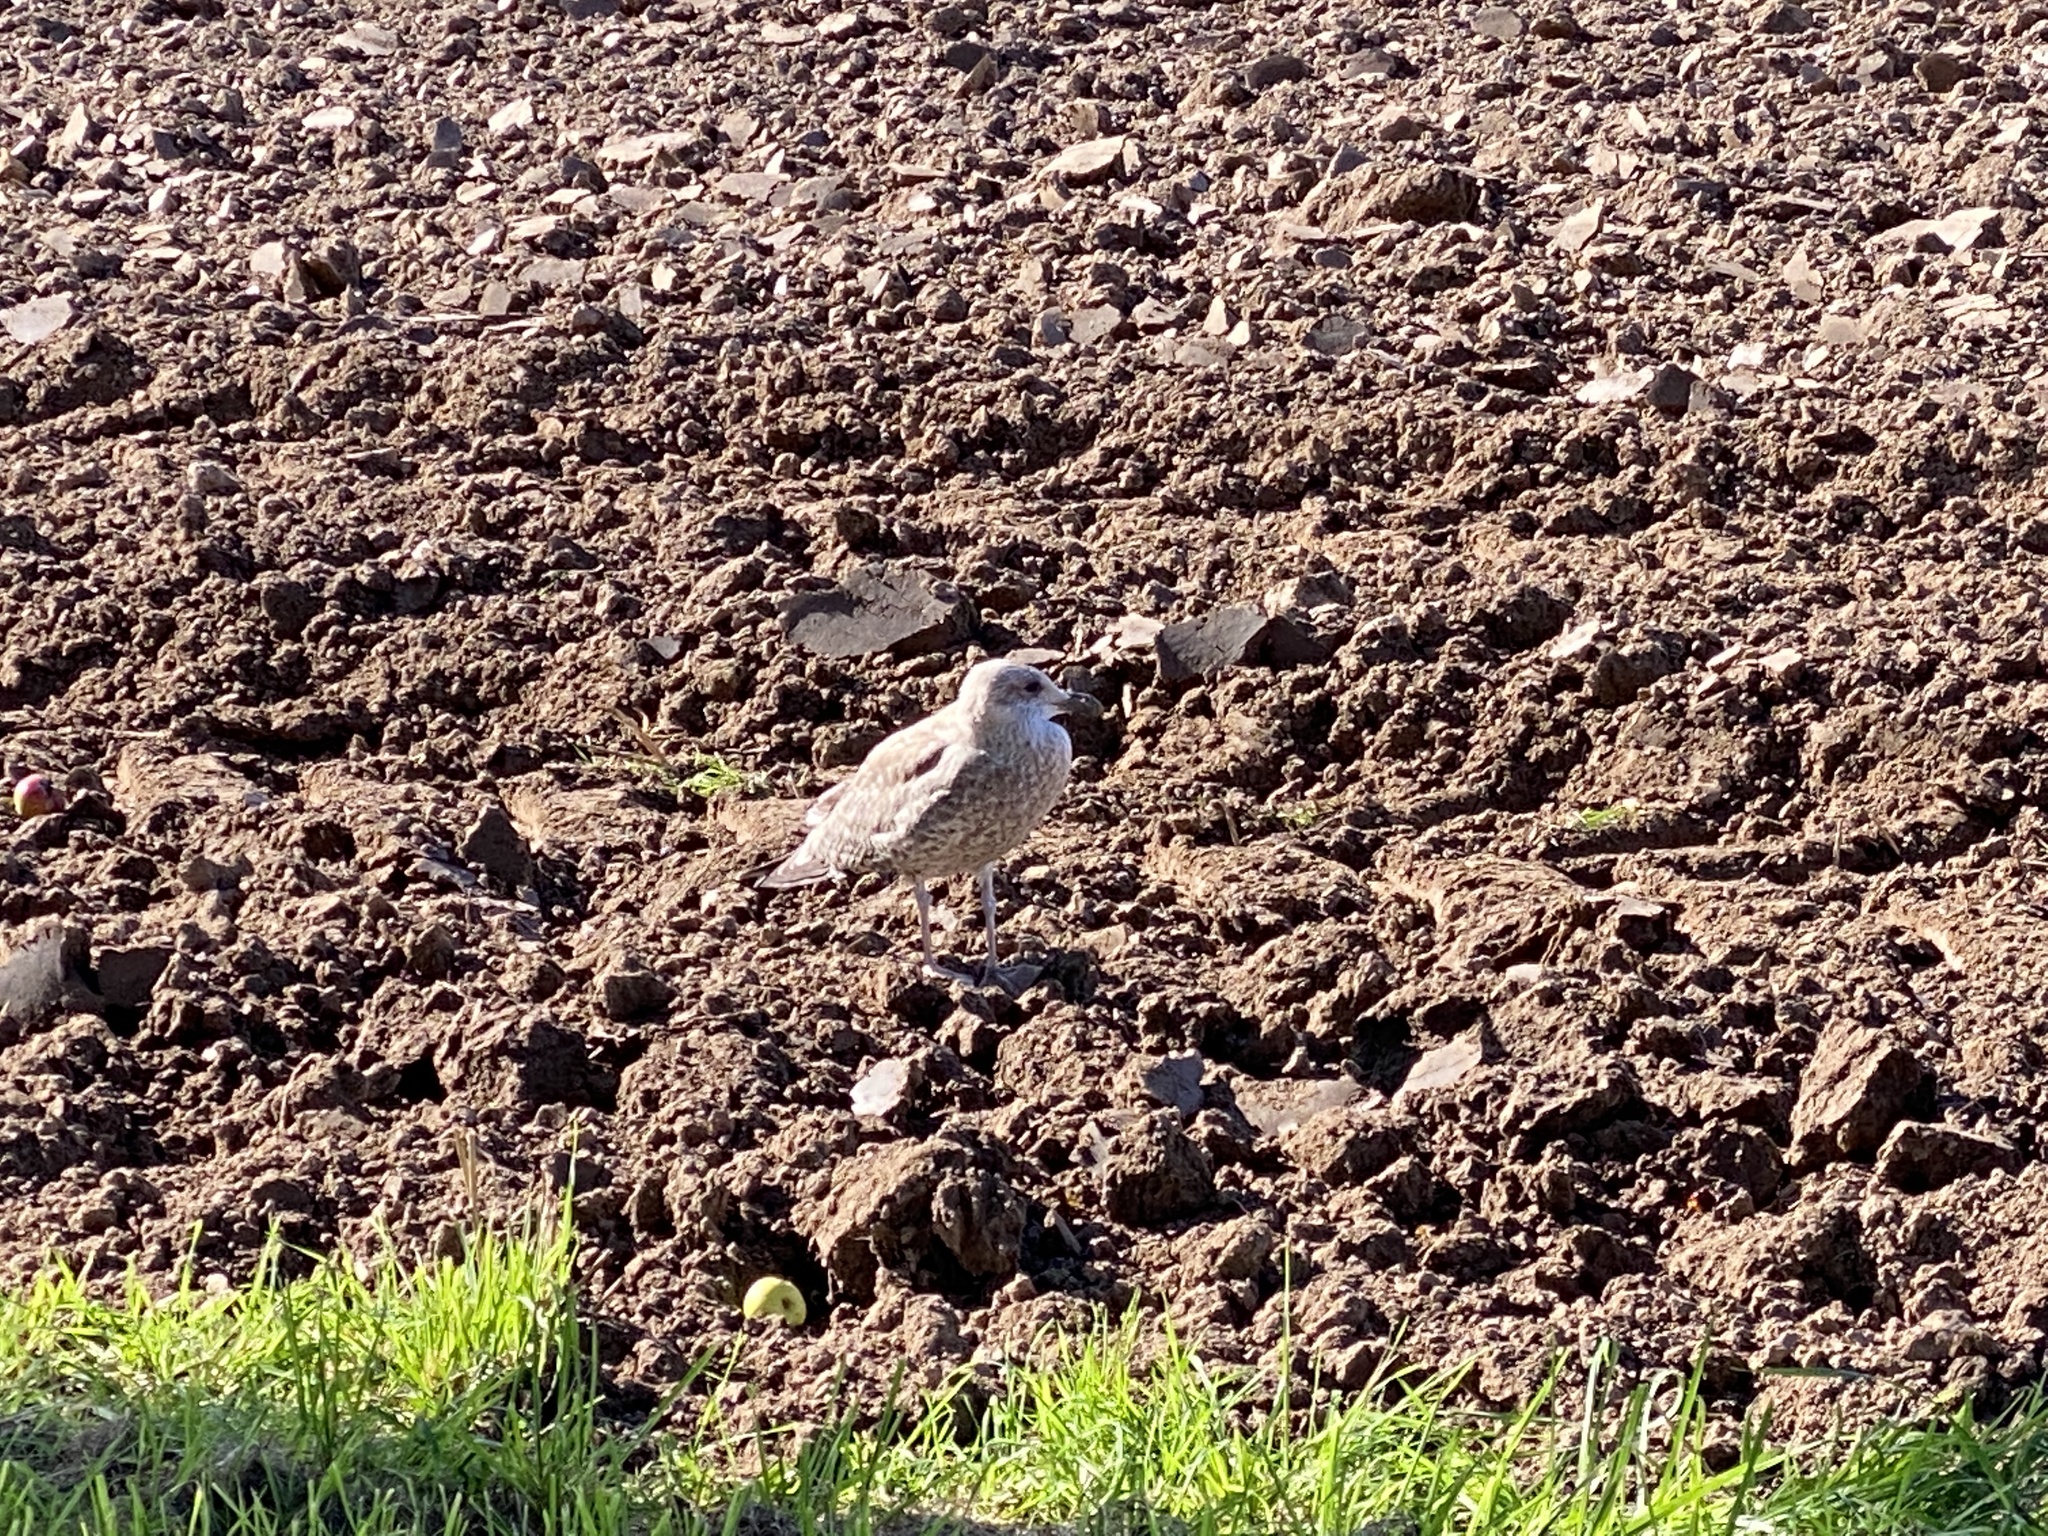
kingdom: Animalia
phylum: Chordata
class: Aves
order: Charadriiformes
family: Laridae
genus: Larus
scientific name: Larus argentatus
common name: Herring gull
